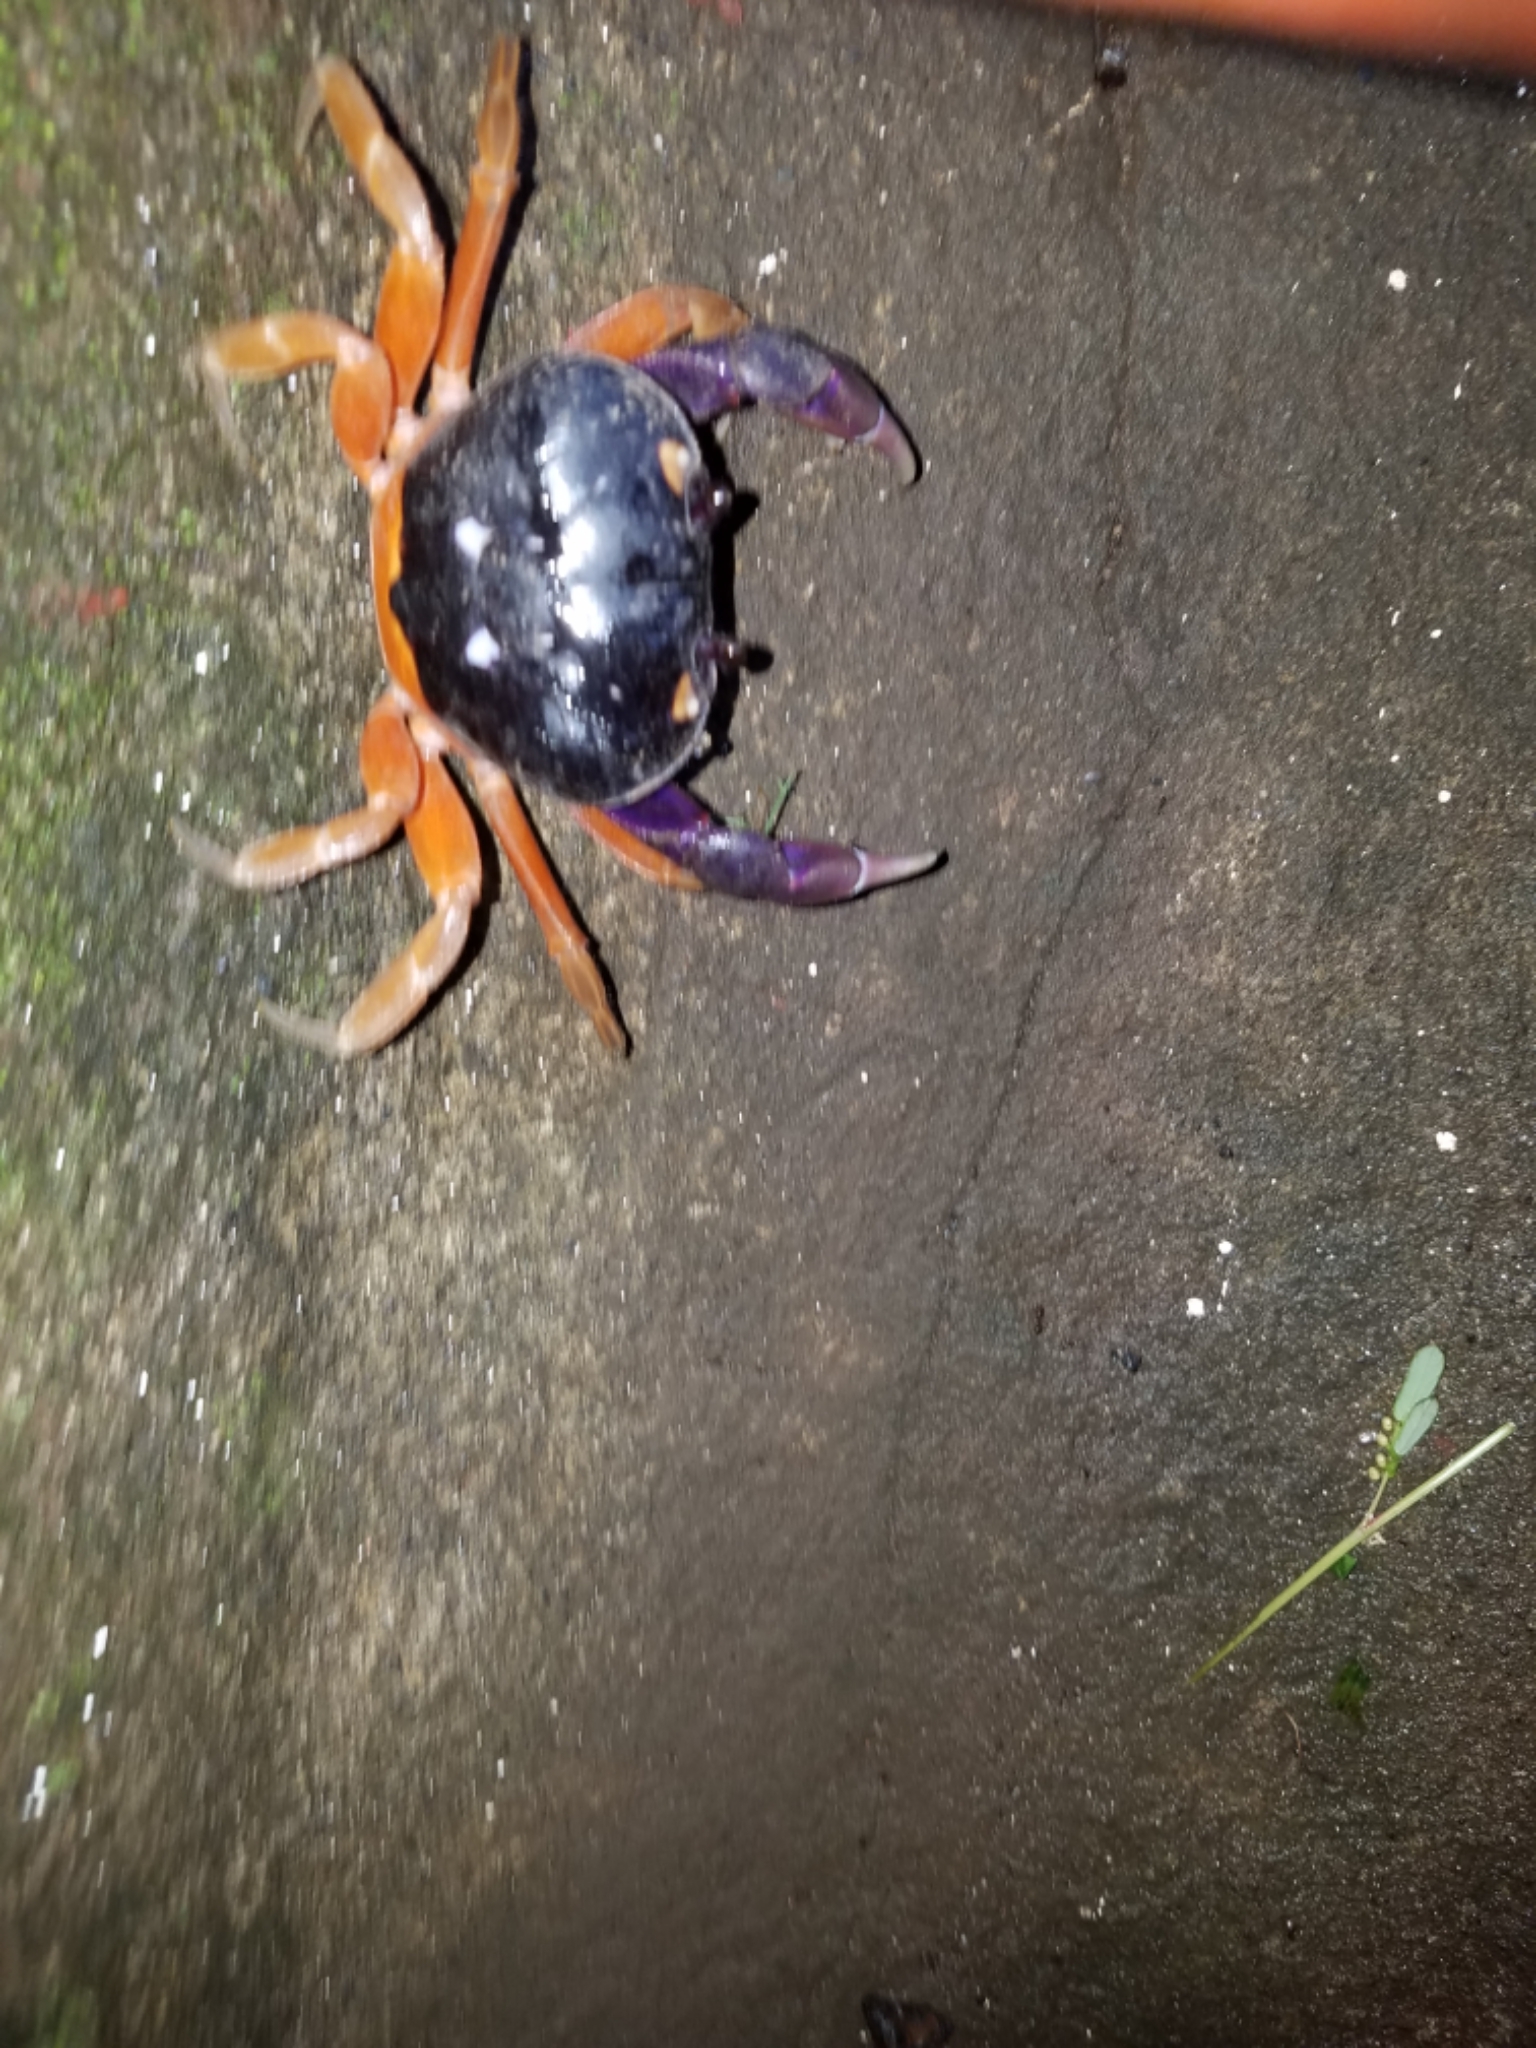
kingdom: Animalia
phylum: Arthropoda
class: Malacostraca
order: Decapoda
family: Gecarcinidae
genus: Gecarcinus
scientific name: Gecarcinus quadratus
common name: Halloween crab
